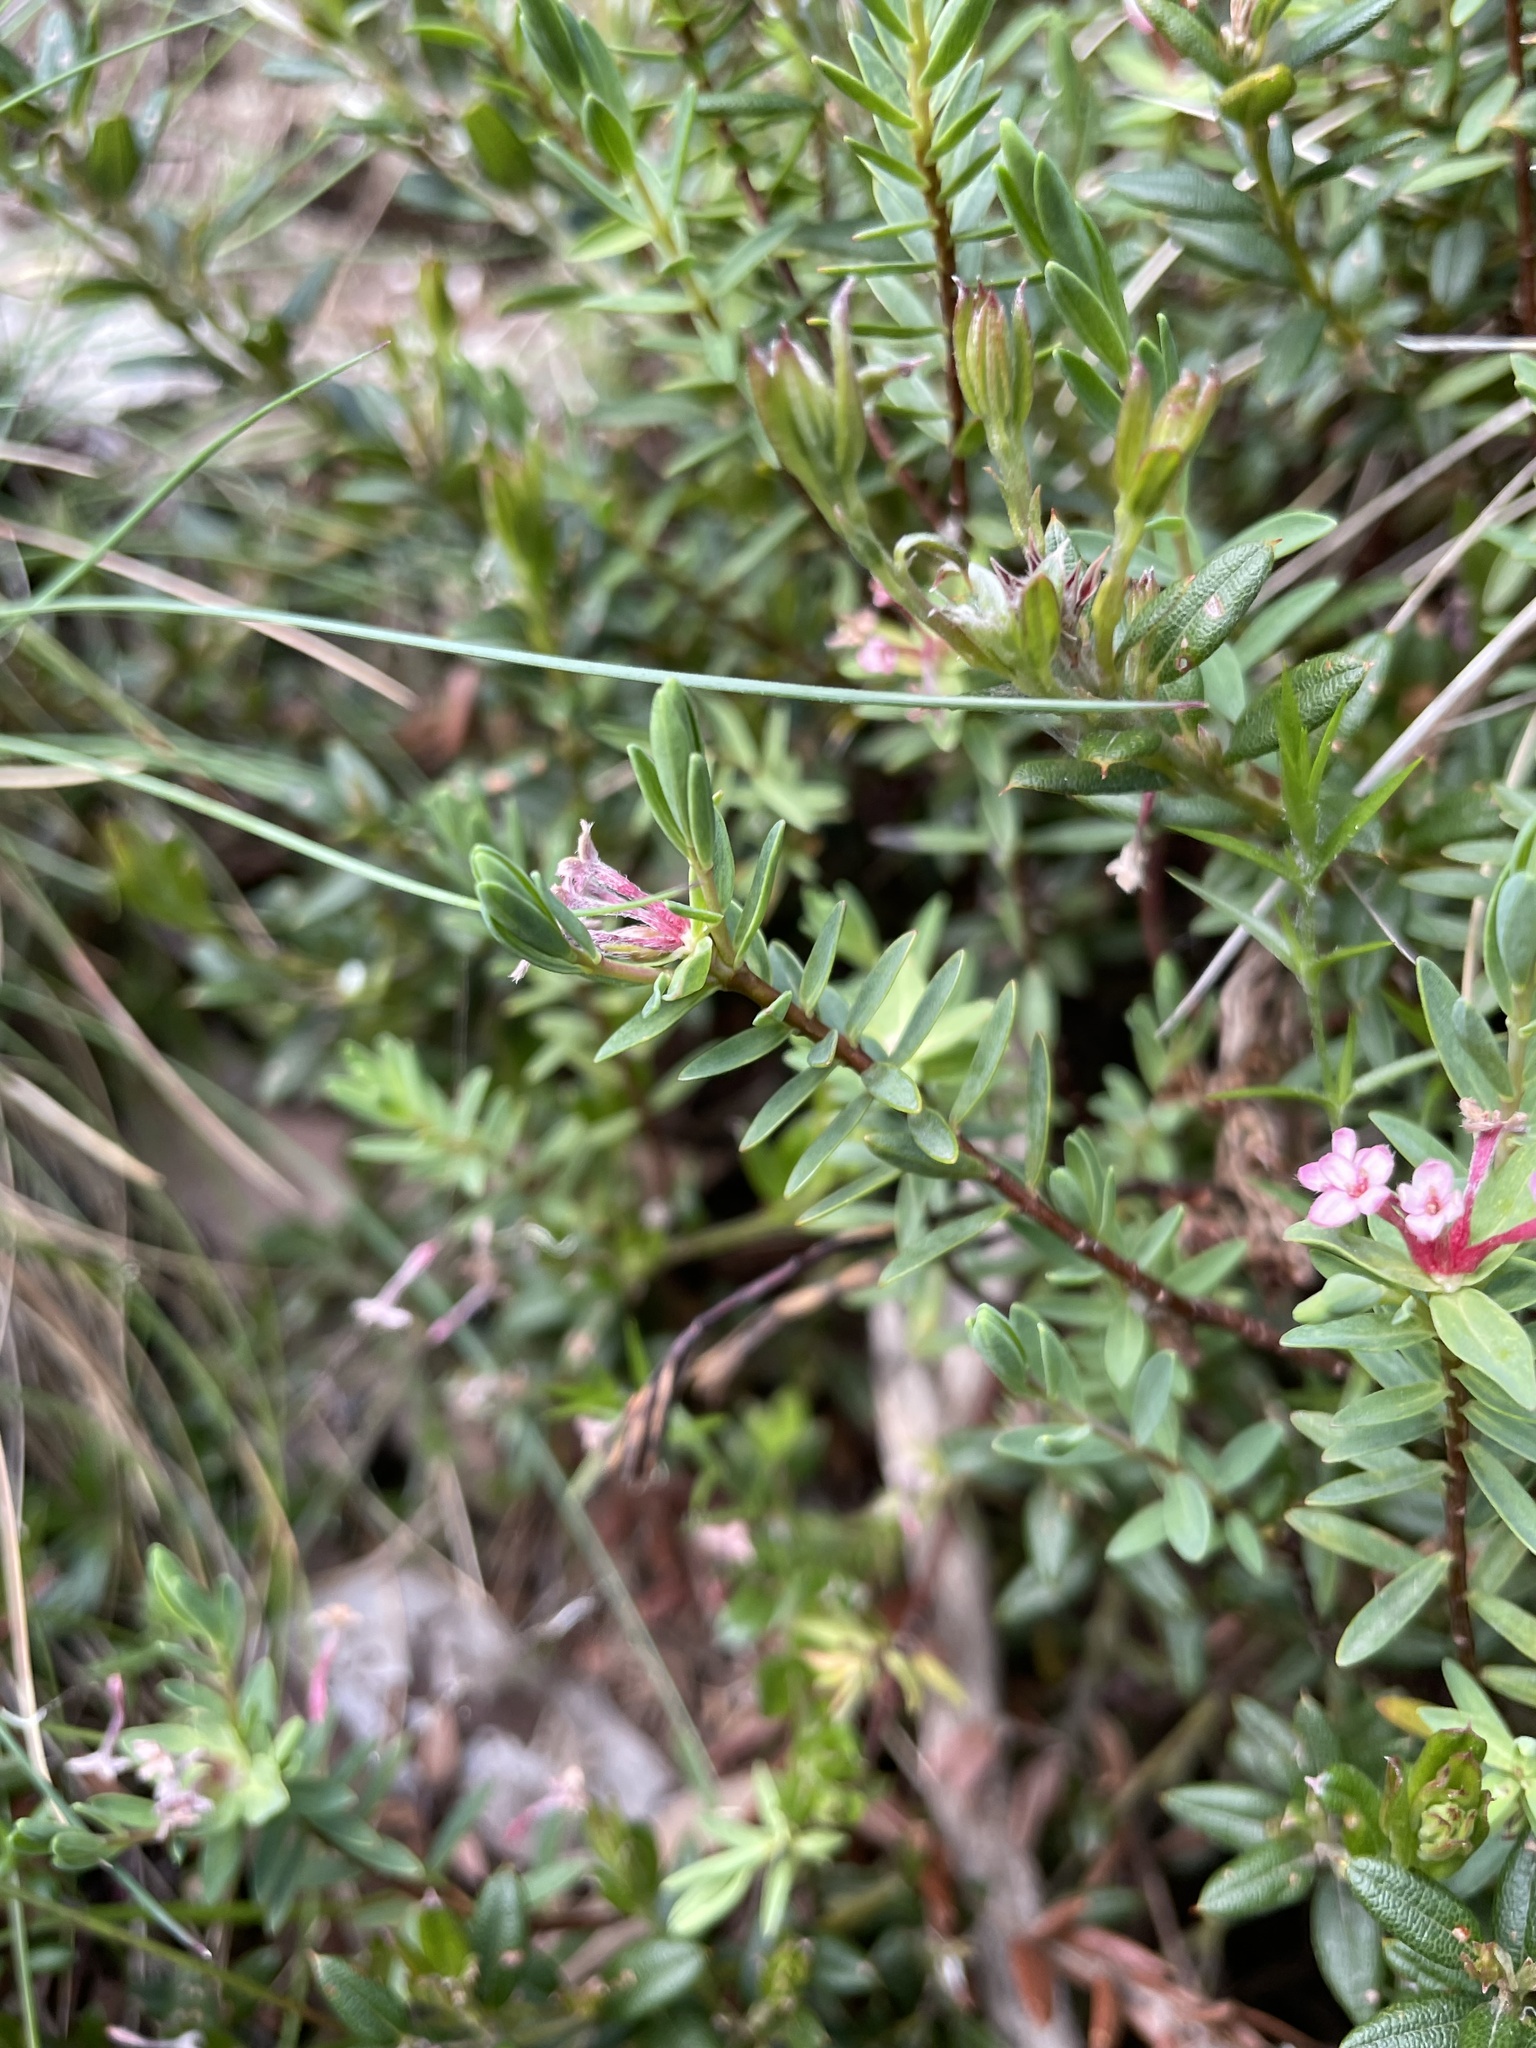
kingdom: Plantae
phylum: Tracheophyta
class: Magnoliopsida
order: Malvales
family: Thymelaeaceae
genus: Pimelea
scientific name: Pimelea alpina
